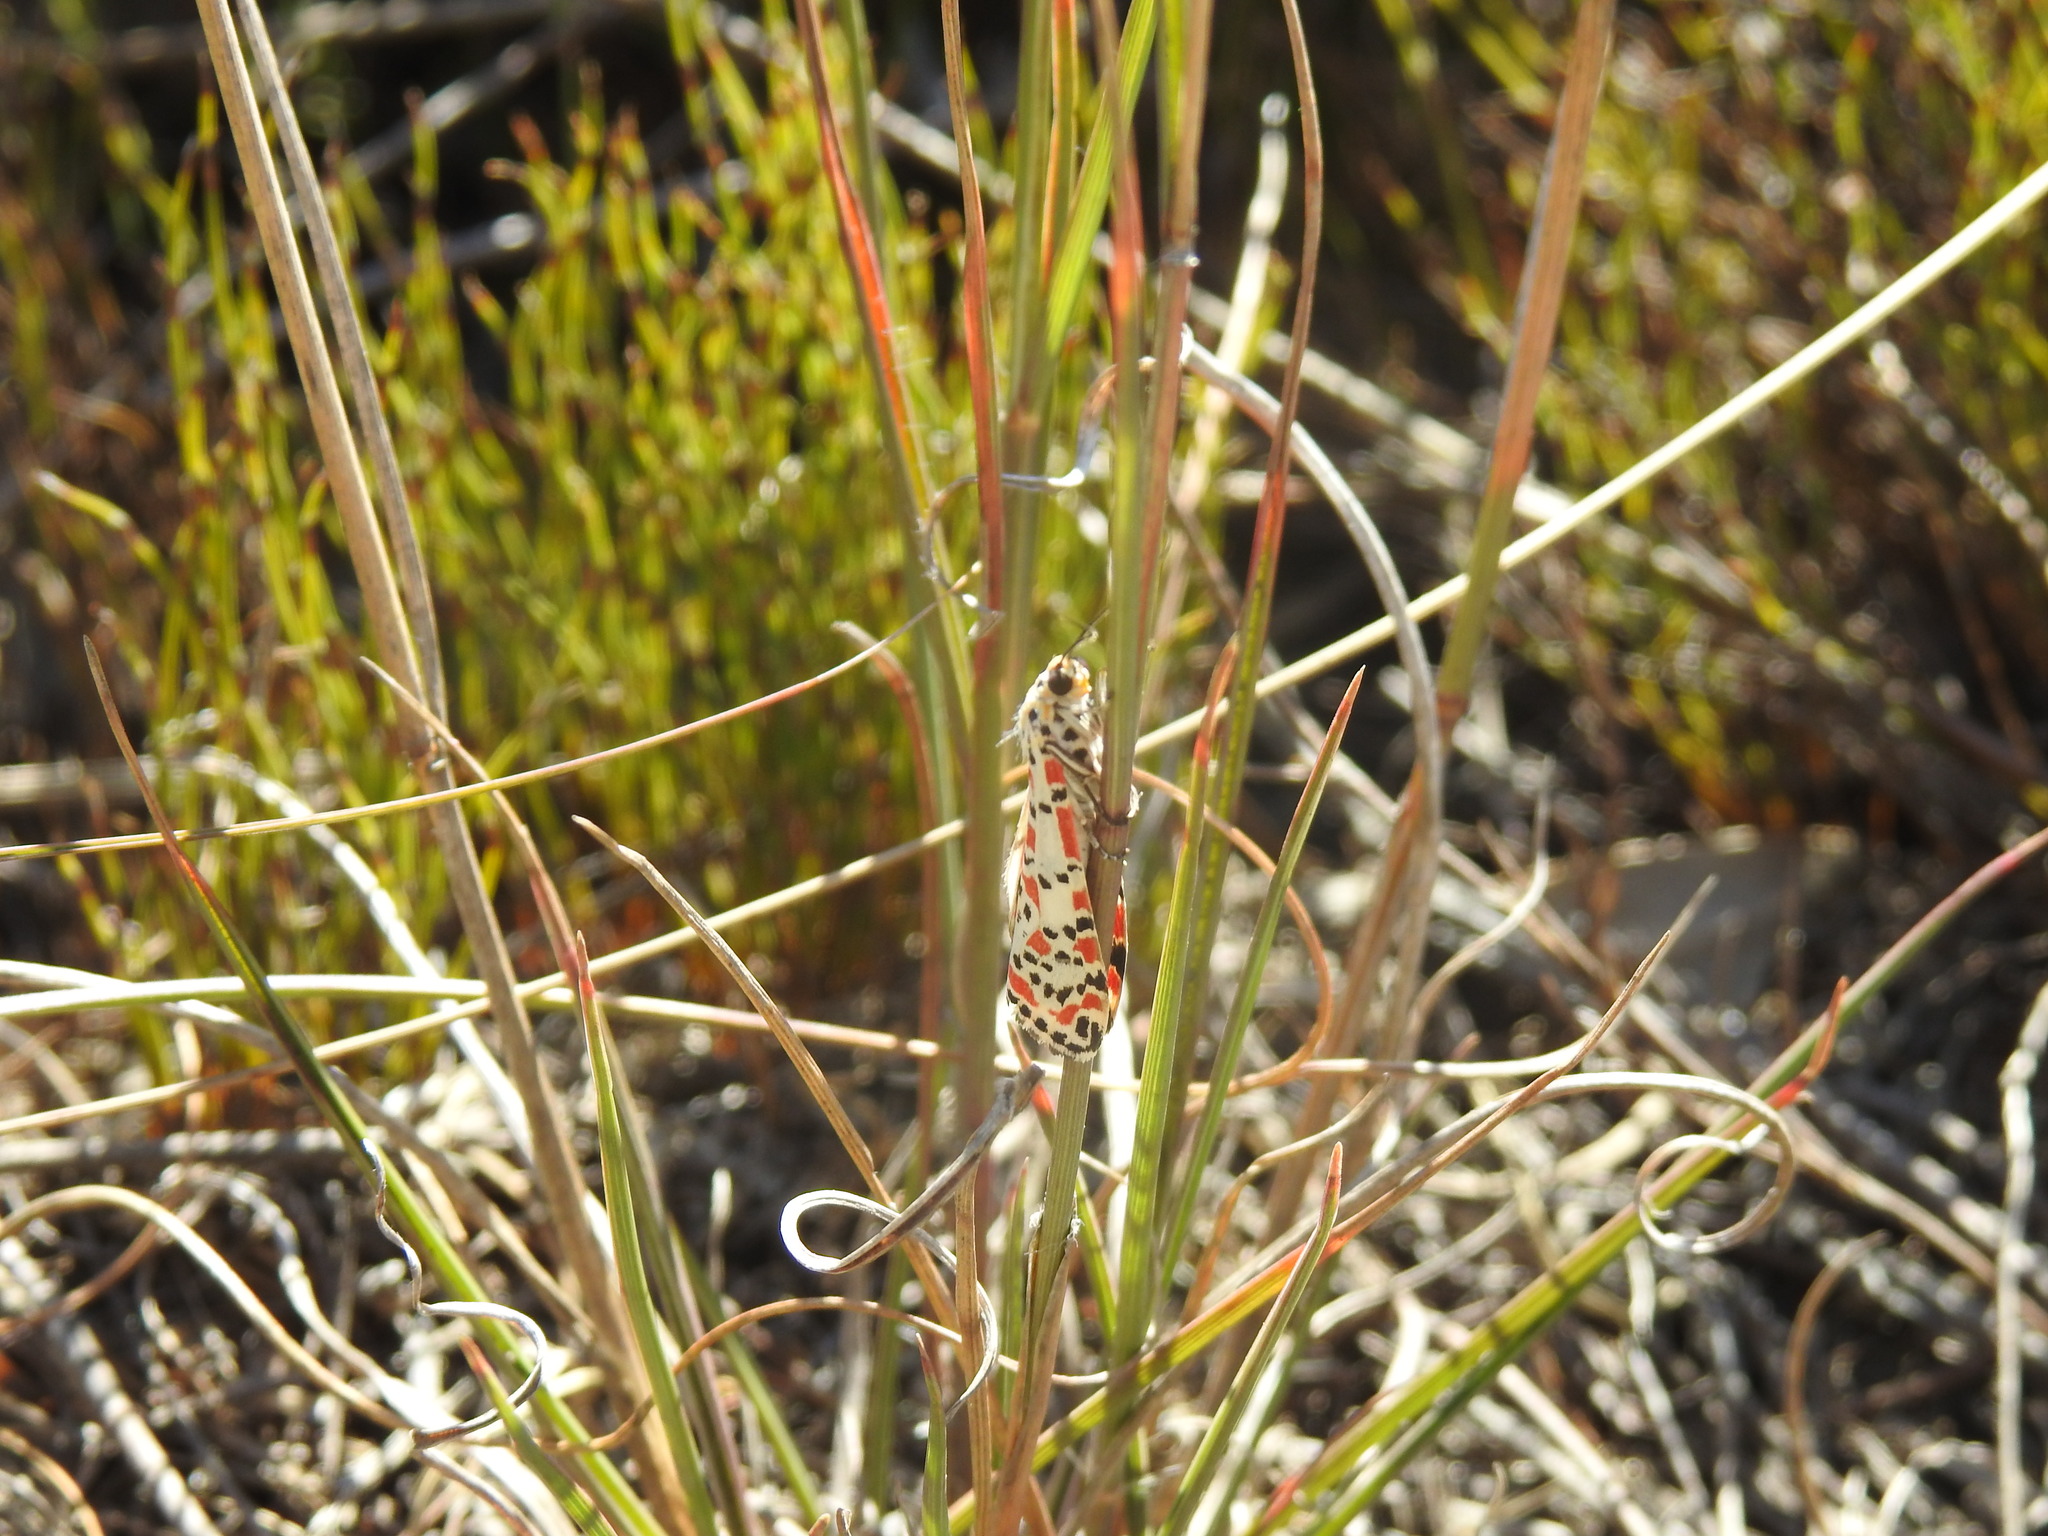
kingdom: Animalia
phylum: Arthropoda
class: Insecta
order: Lepidoptera
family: Erebidae
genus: Utetheisa
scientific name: Utetheisa pulchella
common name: Crimson speckled
